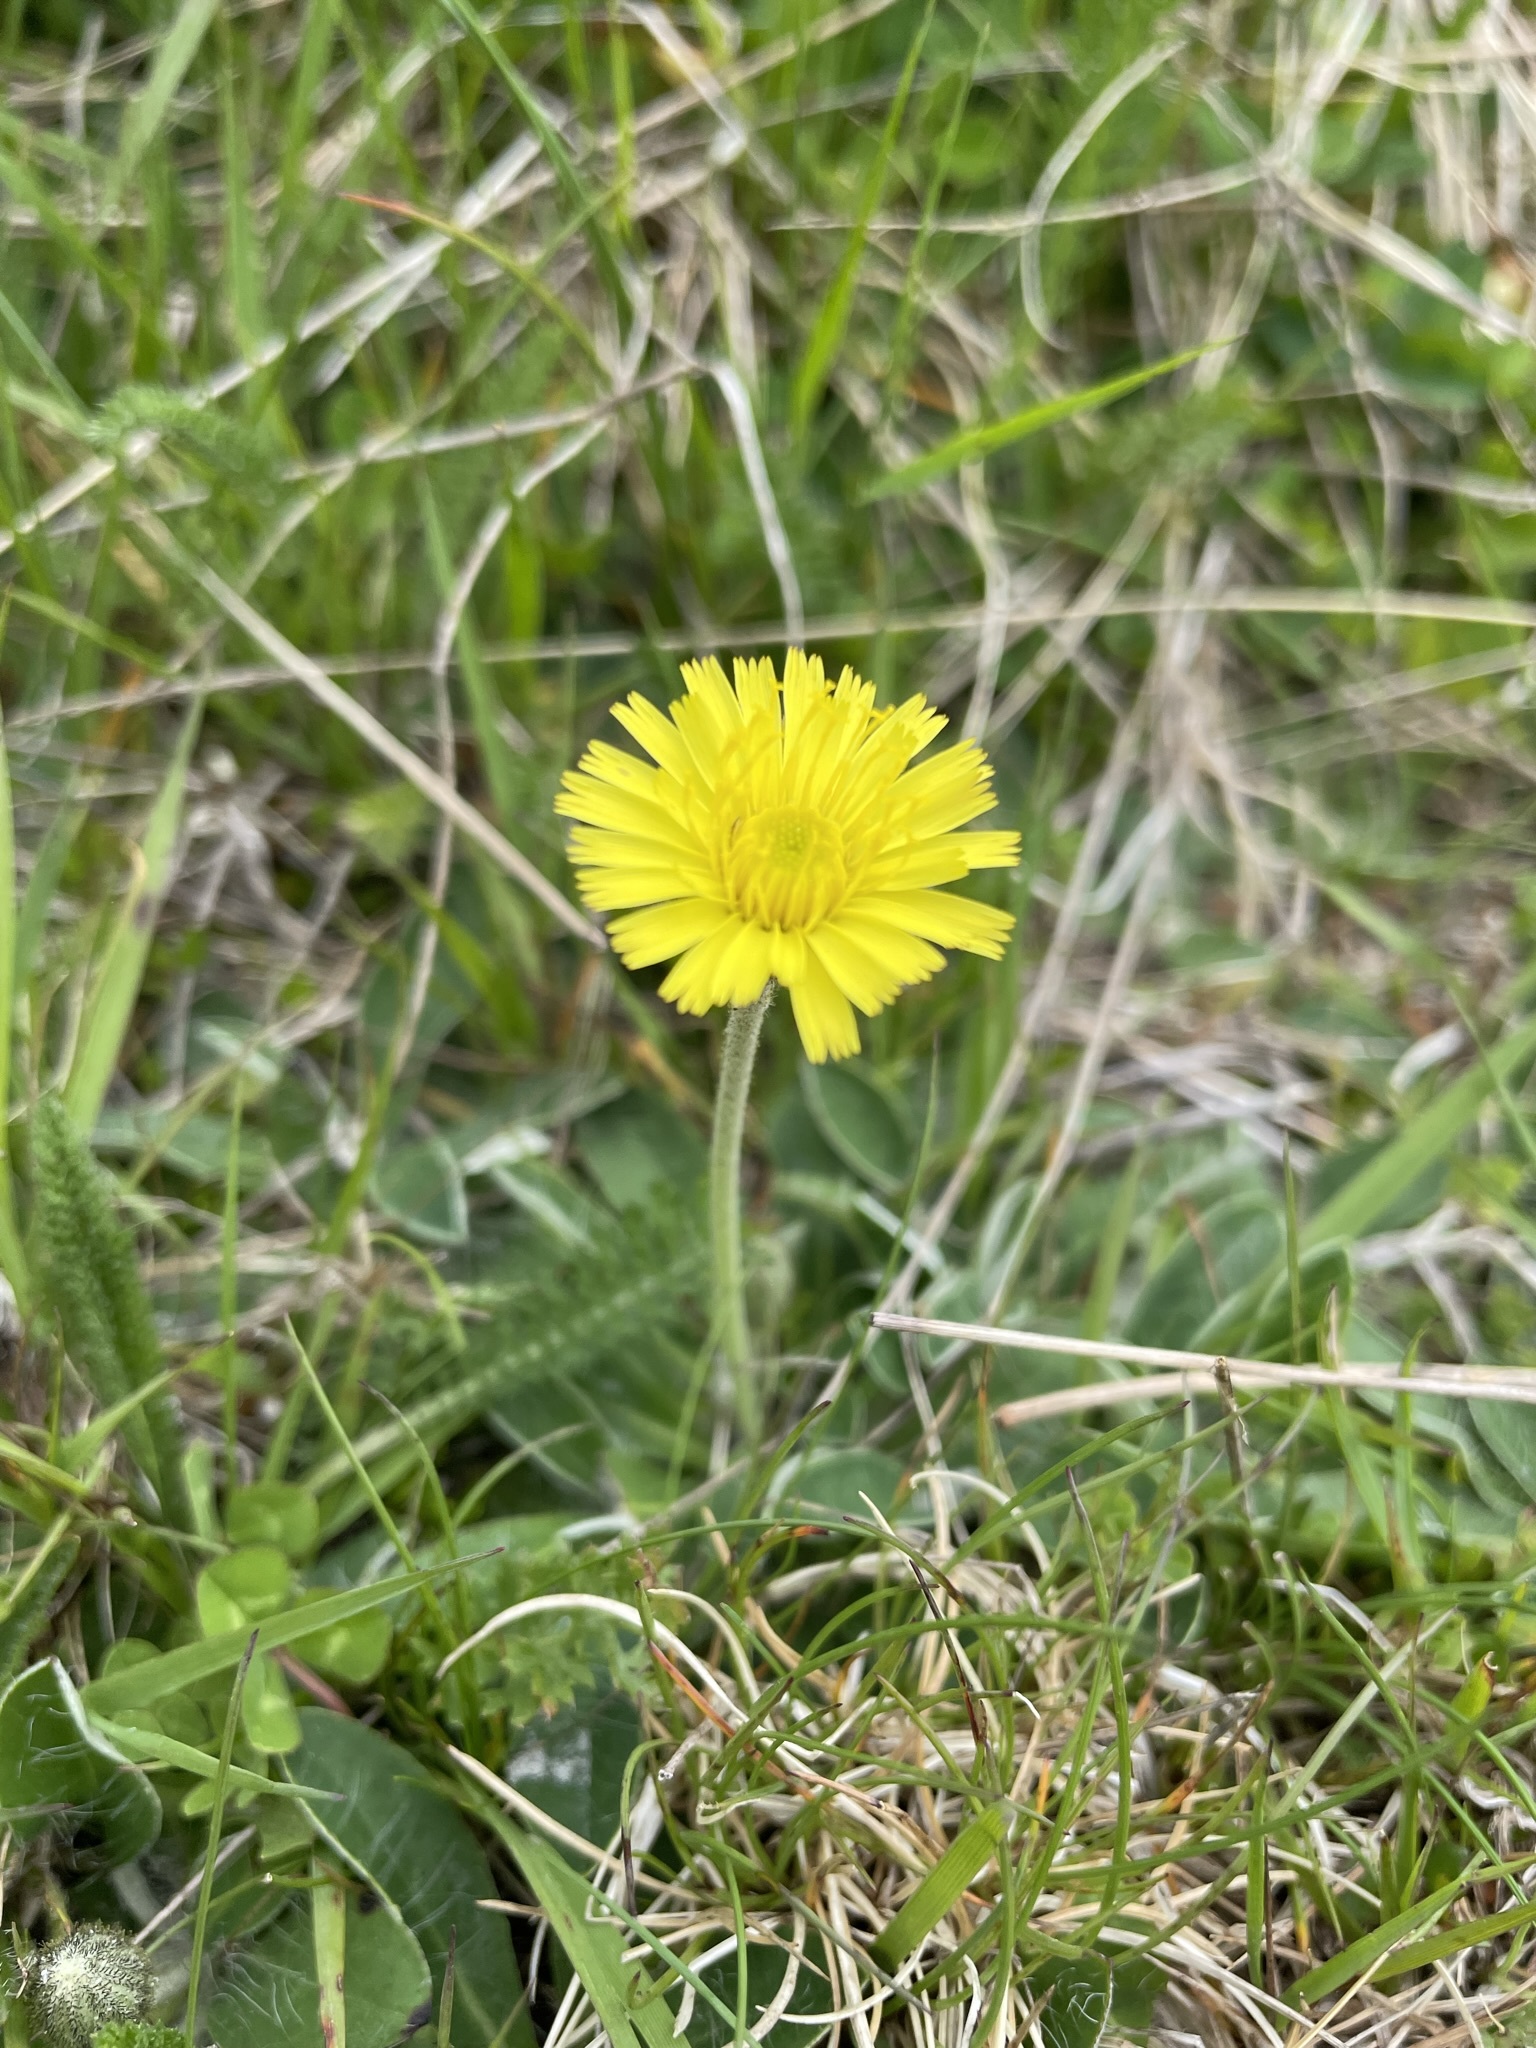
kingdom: Plantae
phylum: Tracheophyta
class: Magnoliopsida
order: Asterales
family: Asteraceae
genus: Pilosella
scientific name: Pilosella officinarum
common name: Mouse-ear hawkweed
